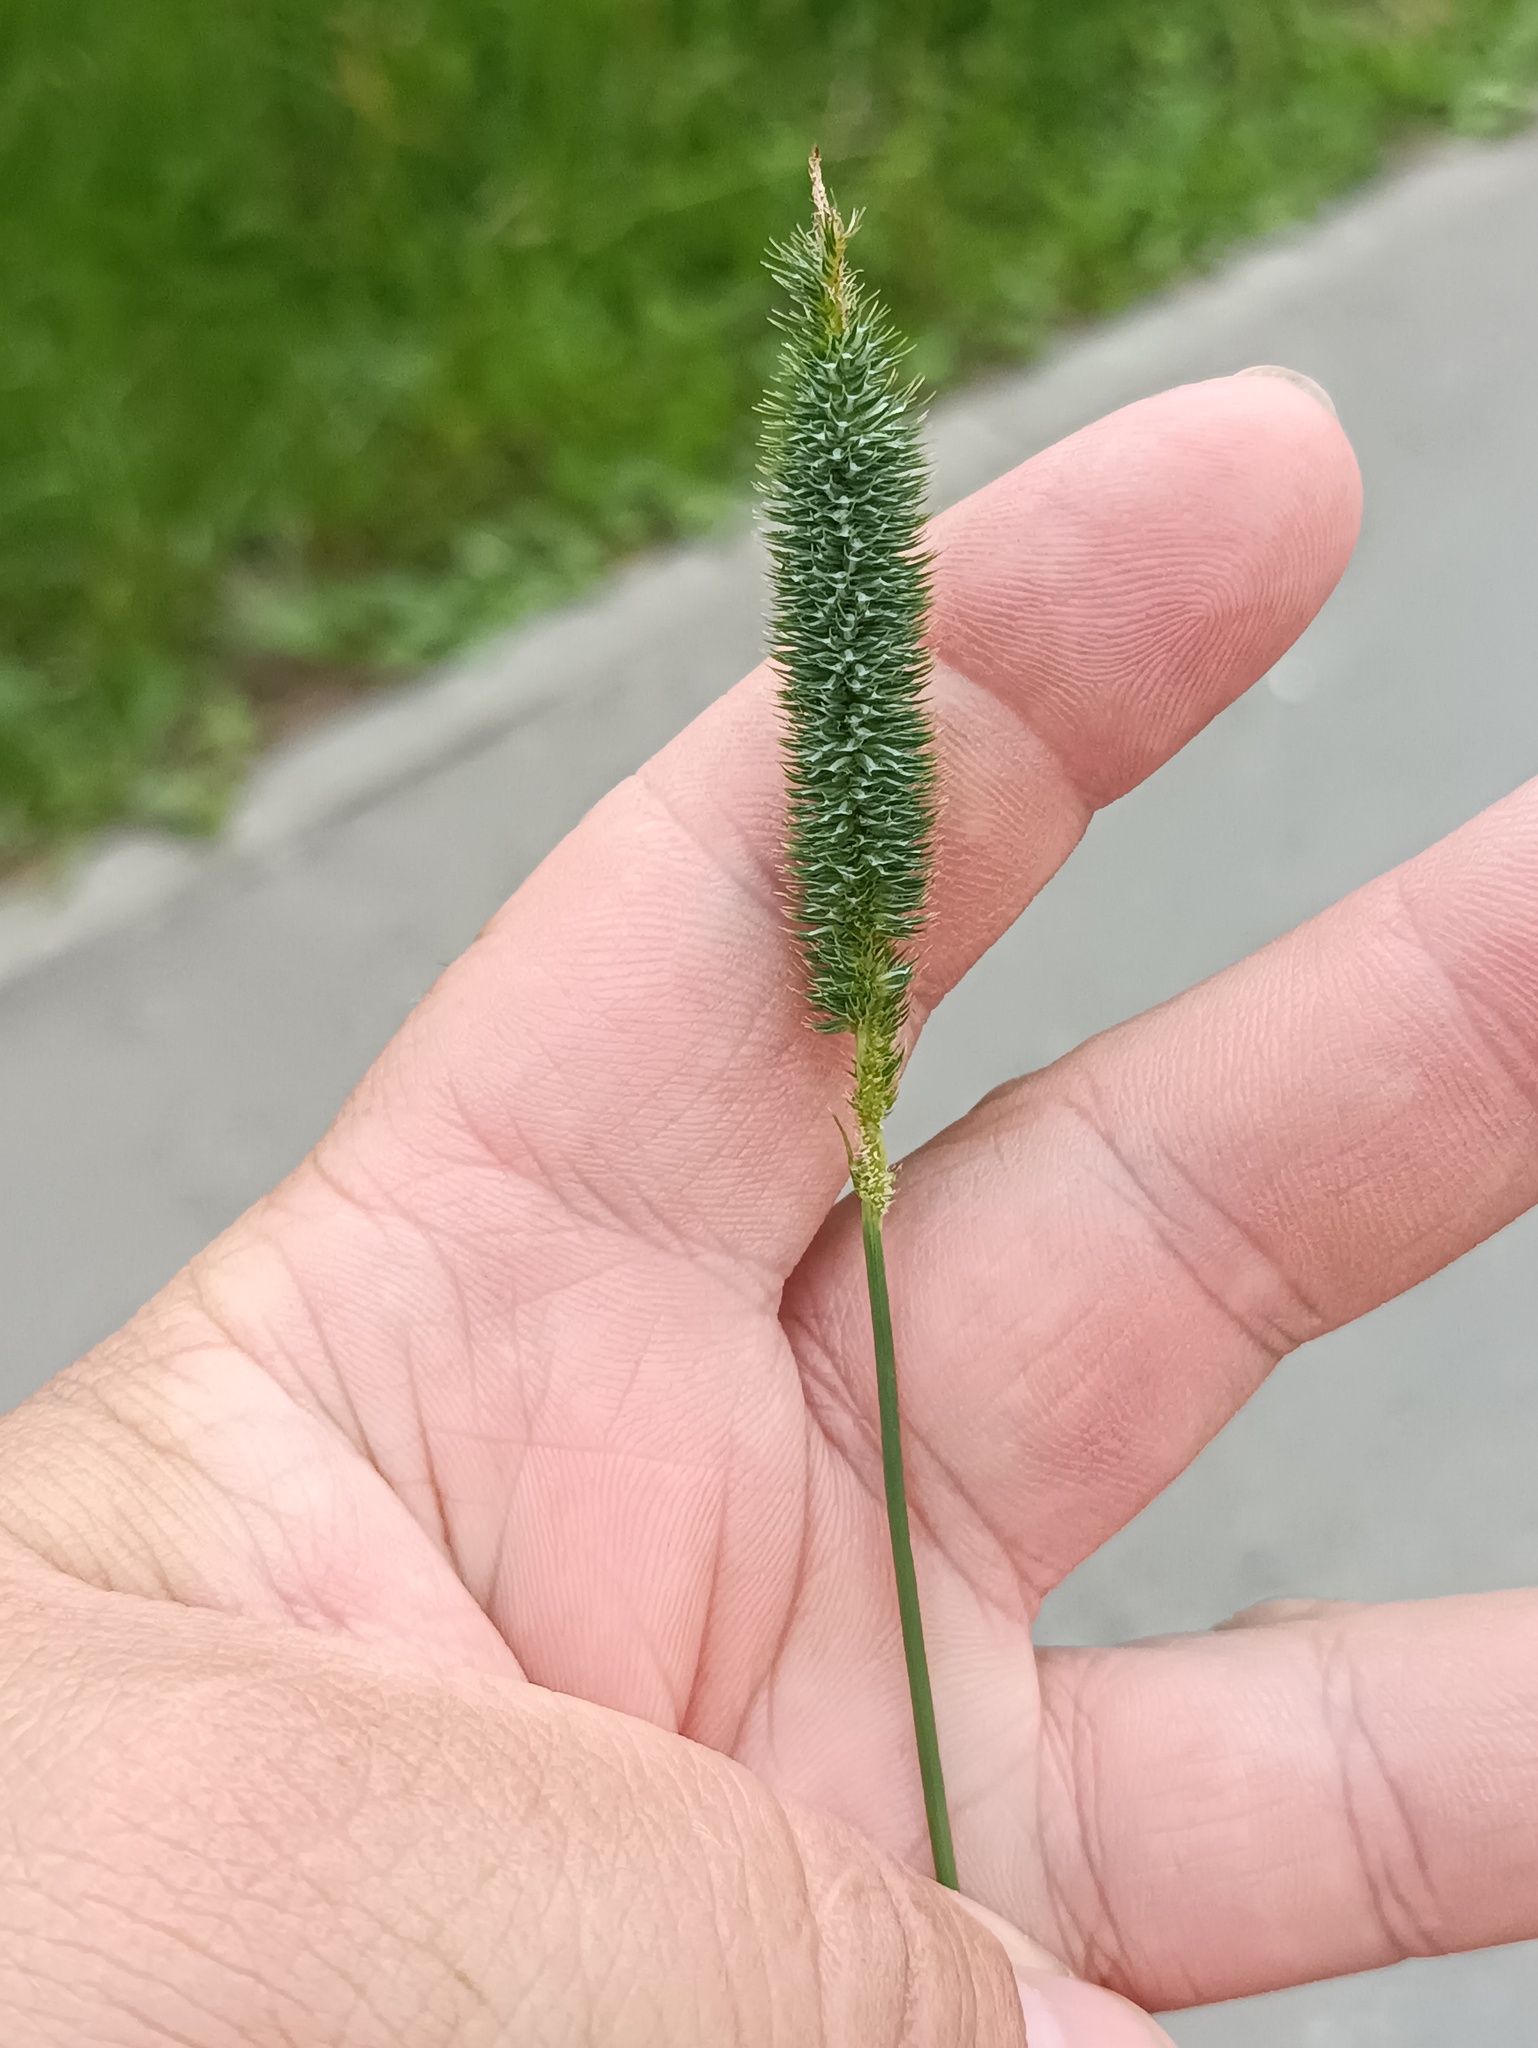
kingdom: Plantae
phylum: Tracheophyta
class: Liliopsida
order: Poales
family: Poaceae
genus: Phleum
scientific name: Phleum pratense
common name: Timothy grass
